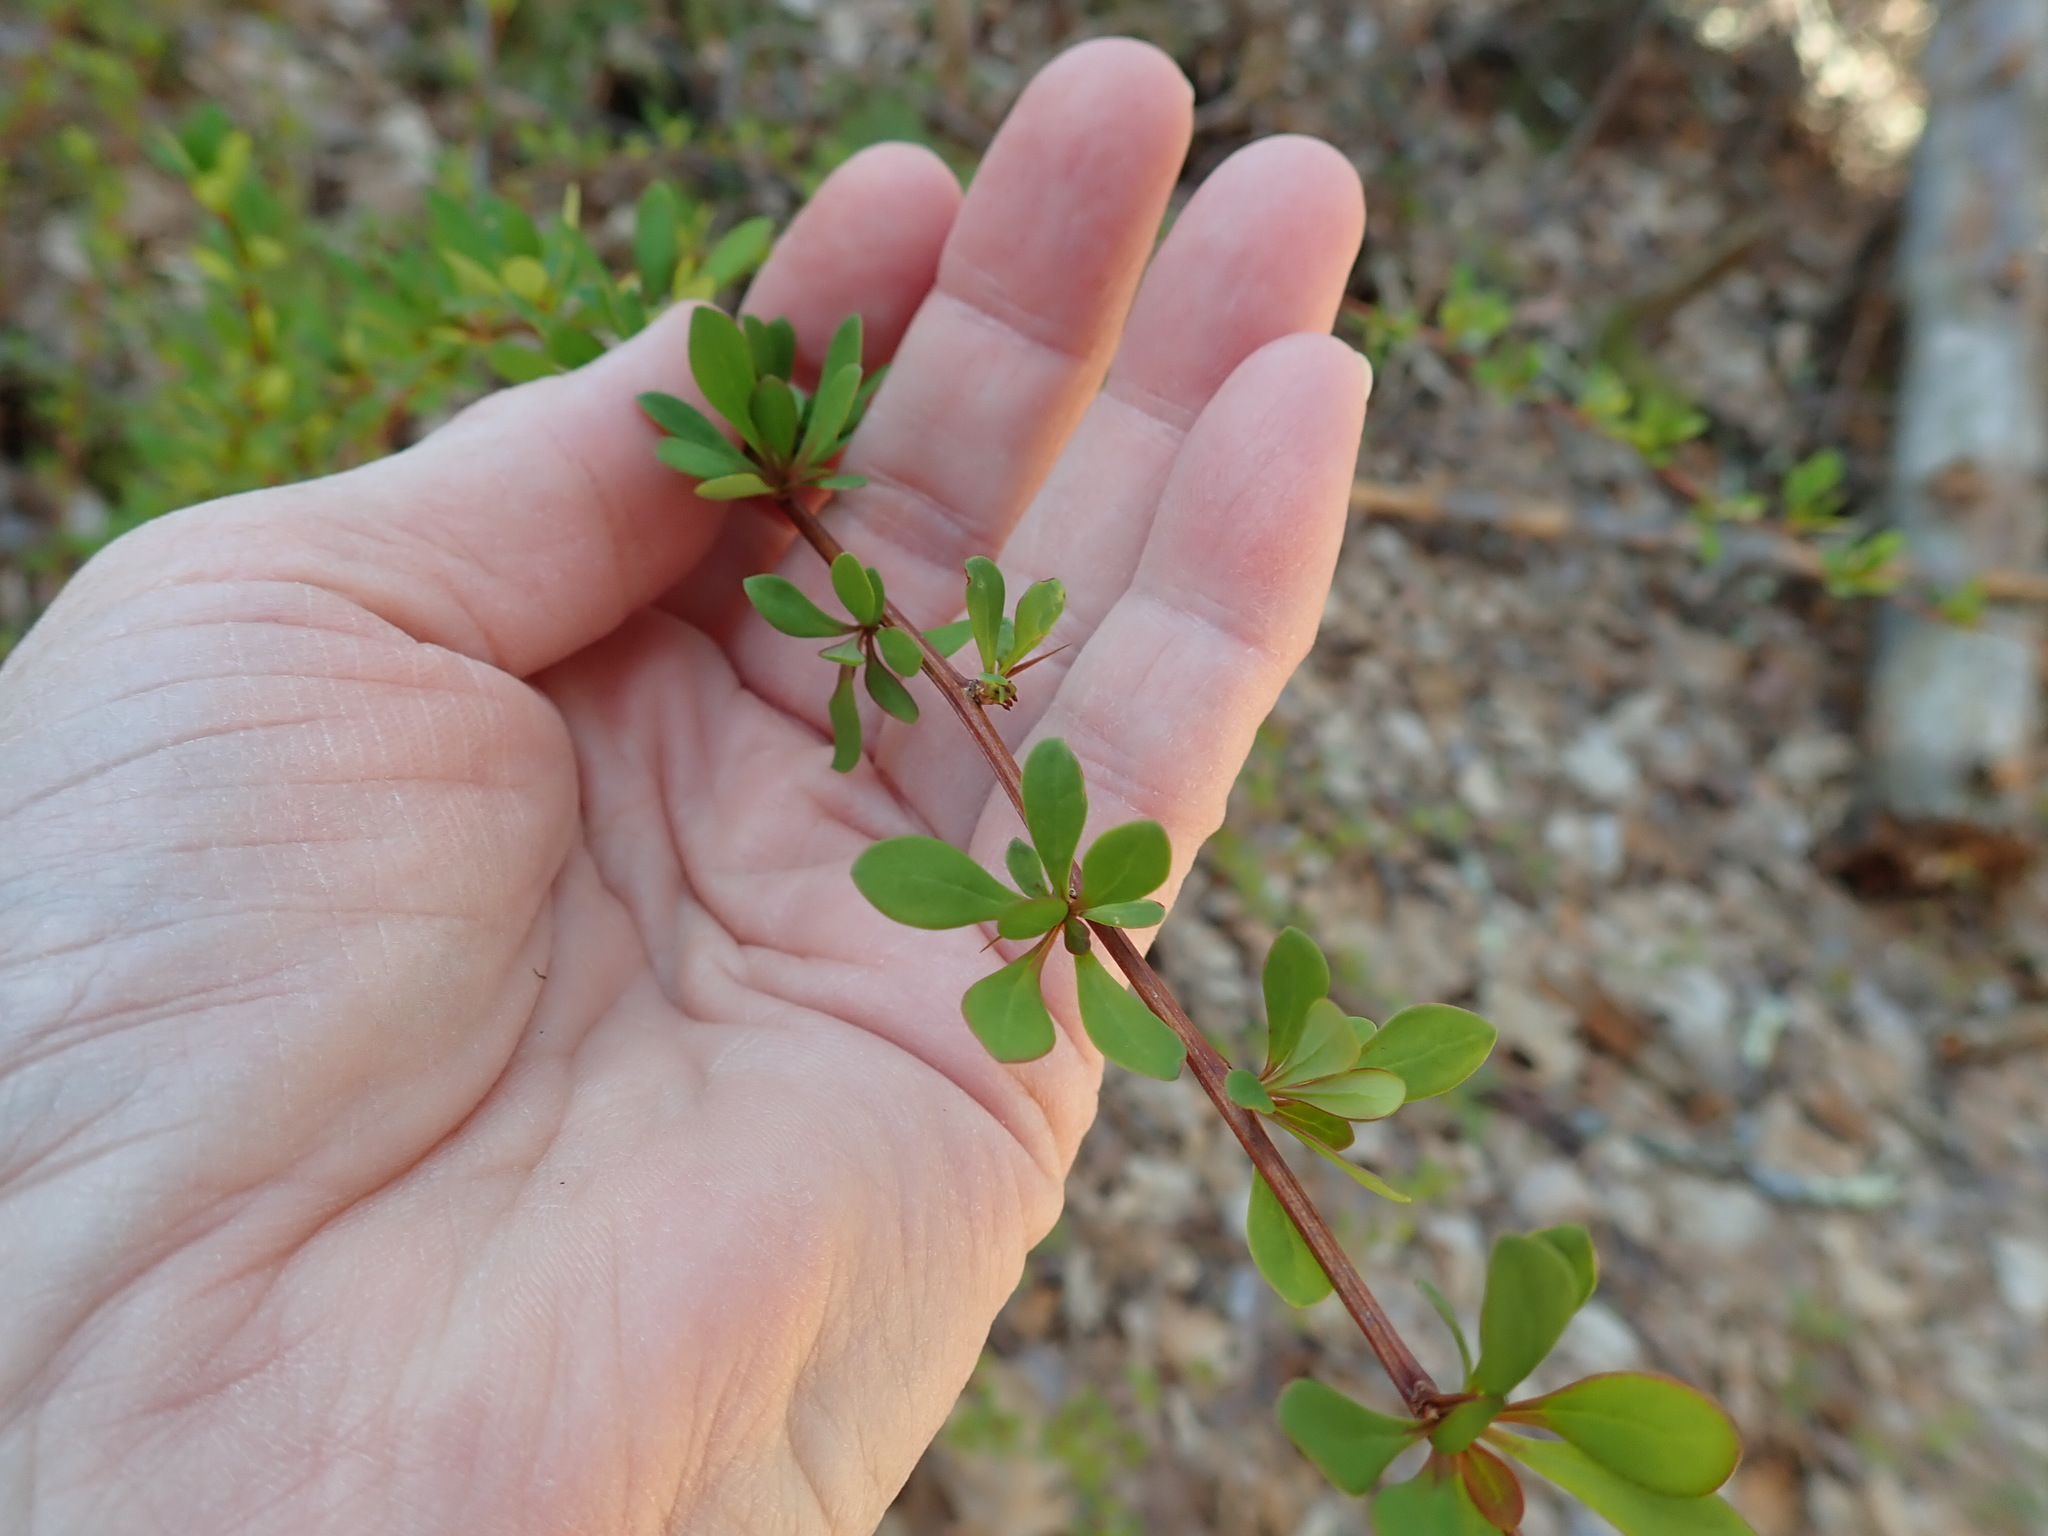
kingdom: Plantae
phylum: Tracheophyta
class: Magnoliopsida
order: Ranunculales
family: Berberidaceae
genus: Berberis
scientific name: Berberis thunbergii
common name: Japanese barberry
